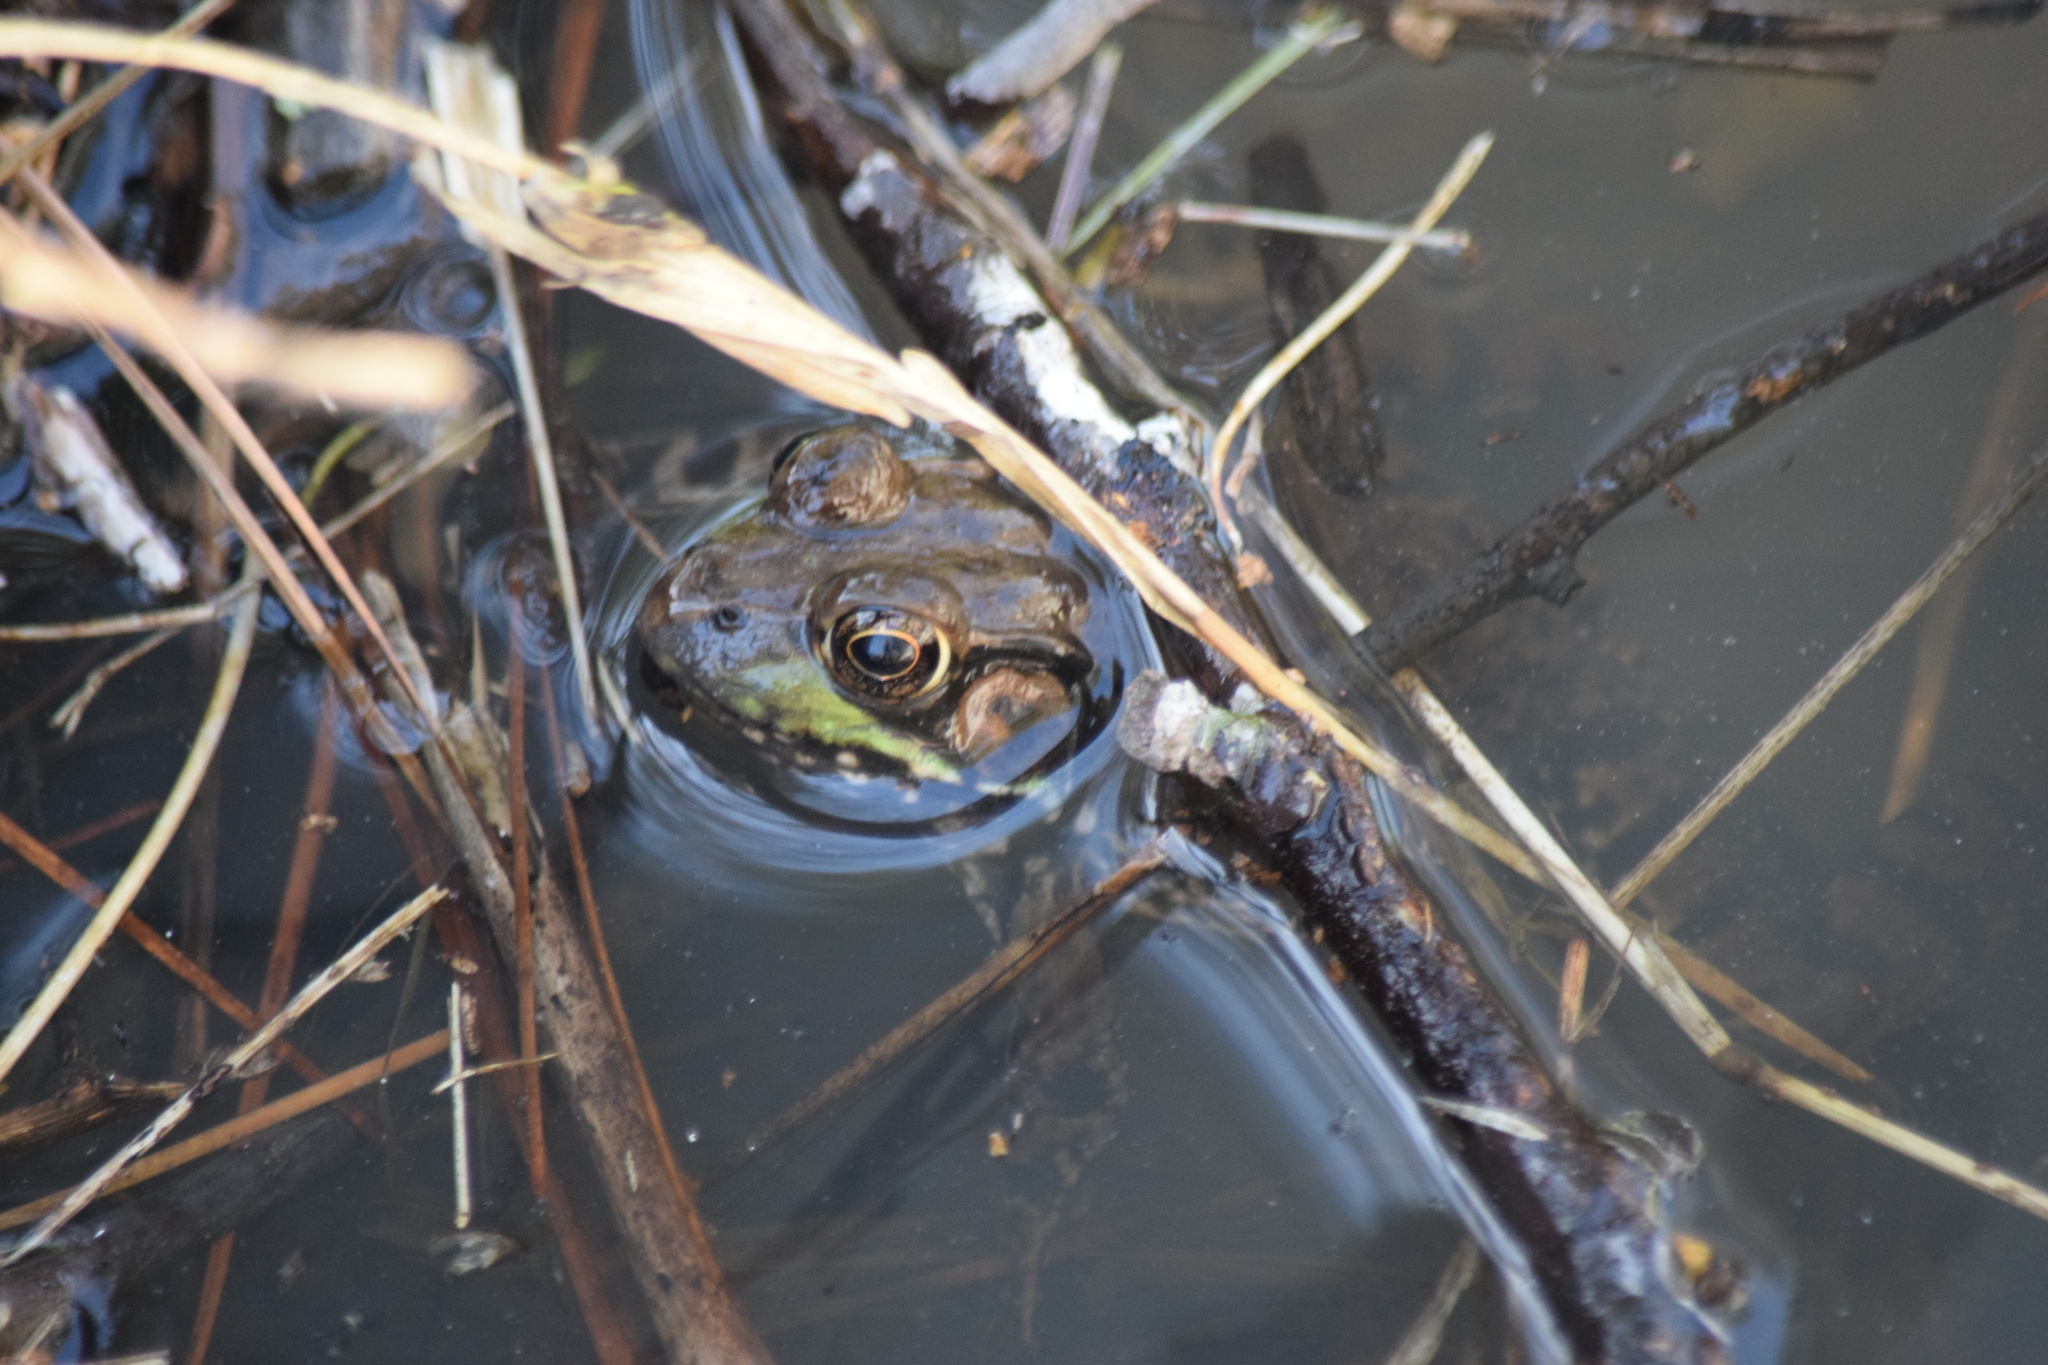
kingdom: Animalia
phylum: Chordata
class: Amphibia
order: Anura
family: Ranidae
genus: Lithobates
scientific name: Lithobates clamitans
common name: Green frog
